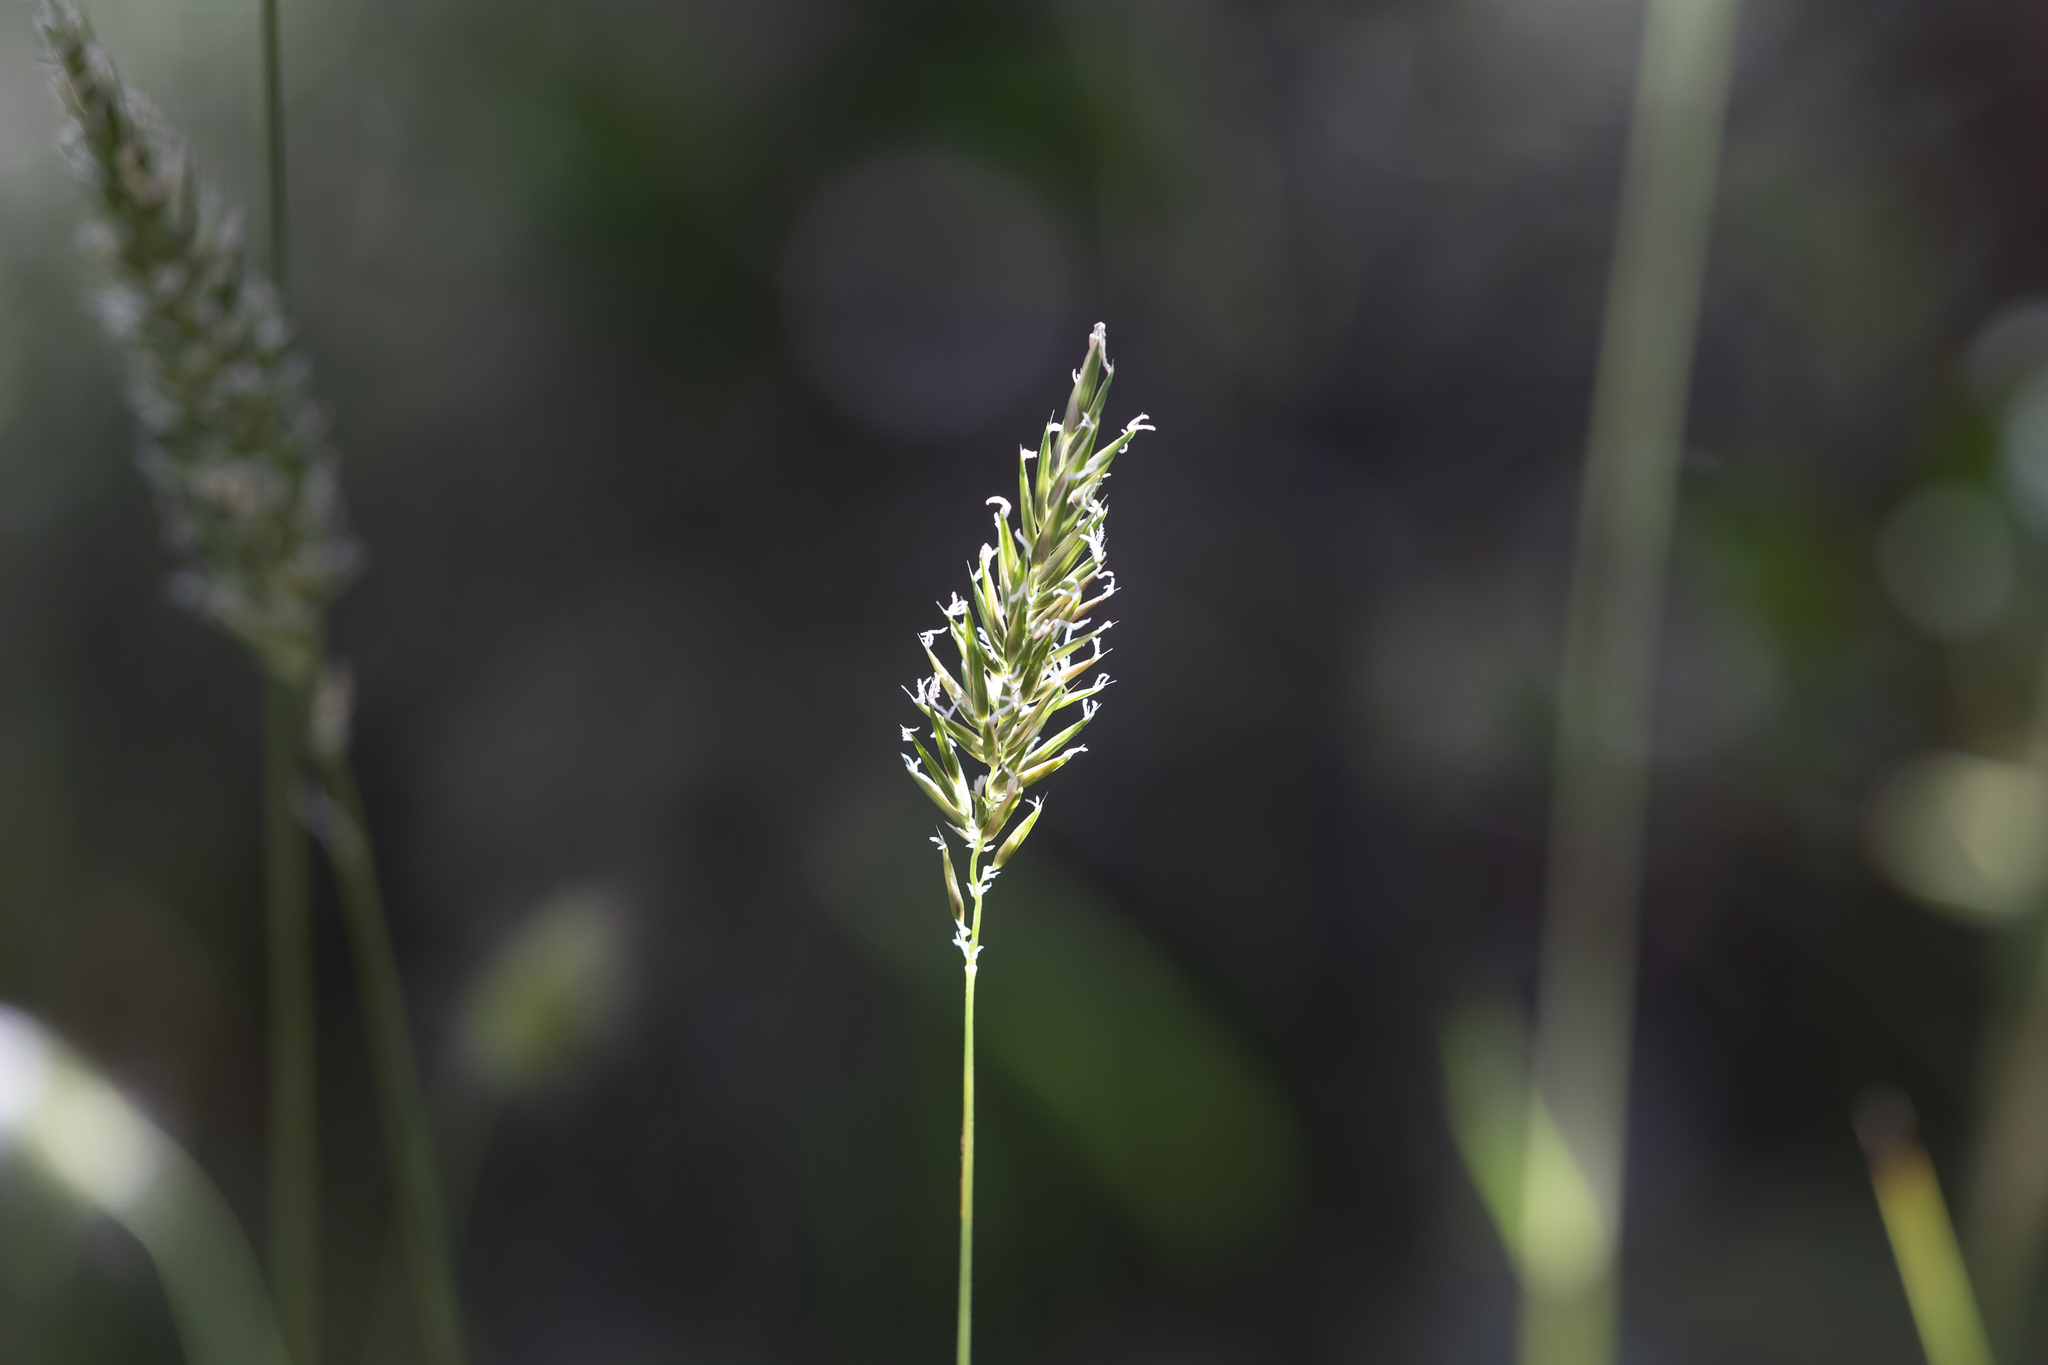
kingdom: Plantae
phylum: Tracheophyta
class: Liliopsida
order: Poales
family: Poaceae
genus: Anthoxanthum
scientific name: Anthoxanthum odoratum
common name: Sweet vernalgrass
